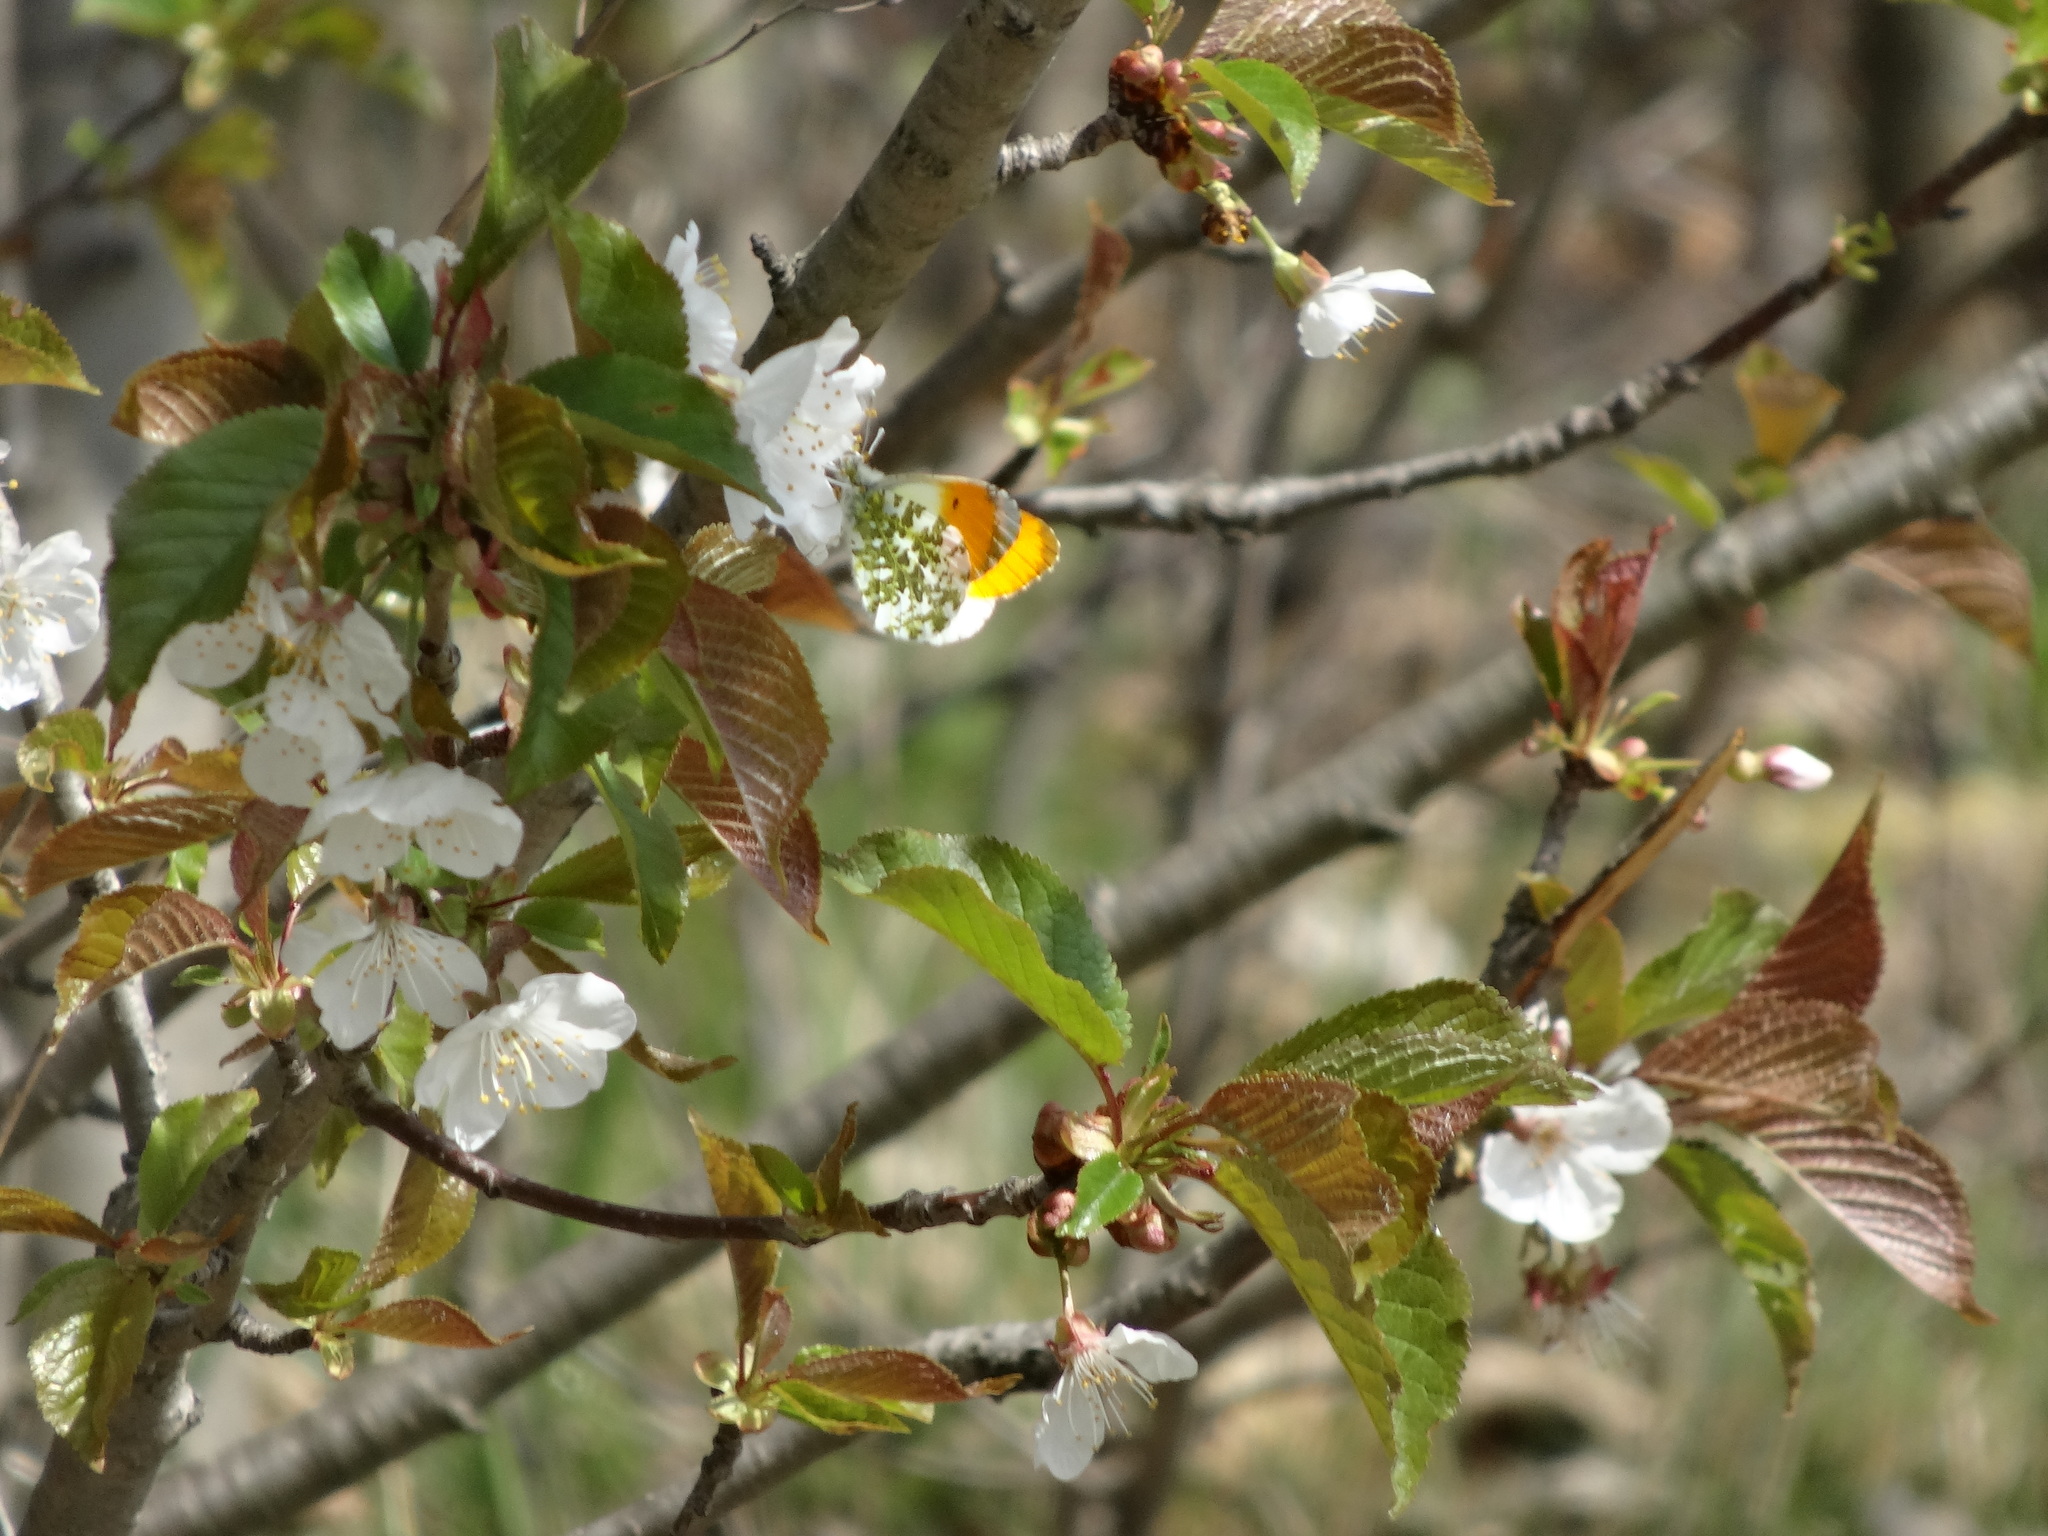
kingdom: Animalia
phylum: Arthropoda
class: Insecta
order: Lepidoptera
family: Pieridae
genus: Anthocharis
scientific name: Anthocharis cardamines
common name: Orange-tip
